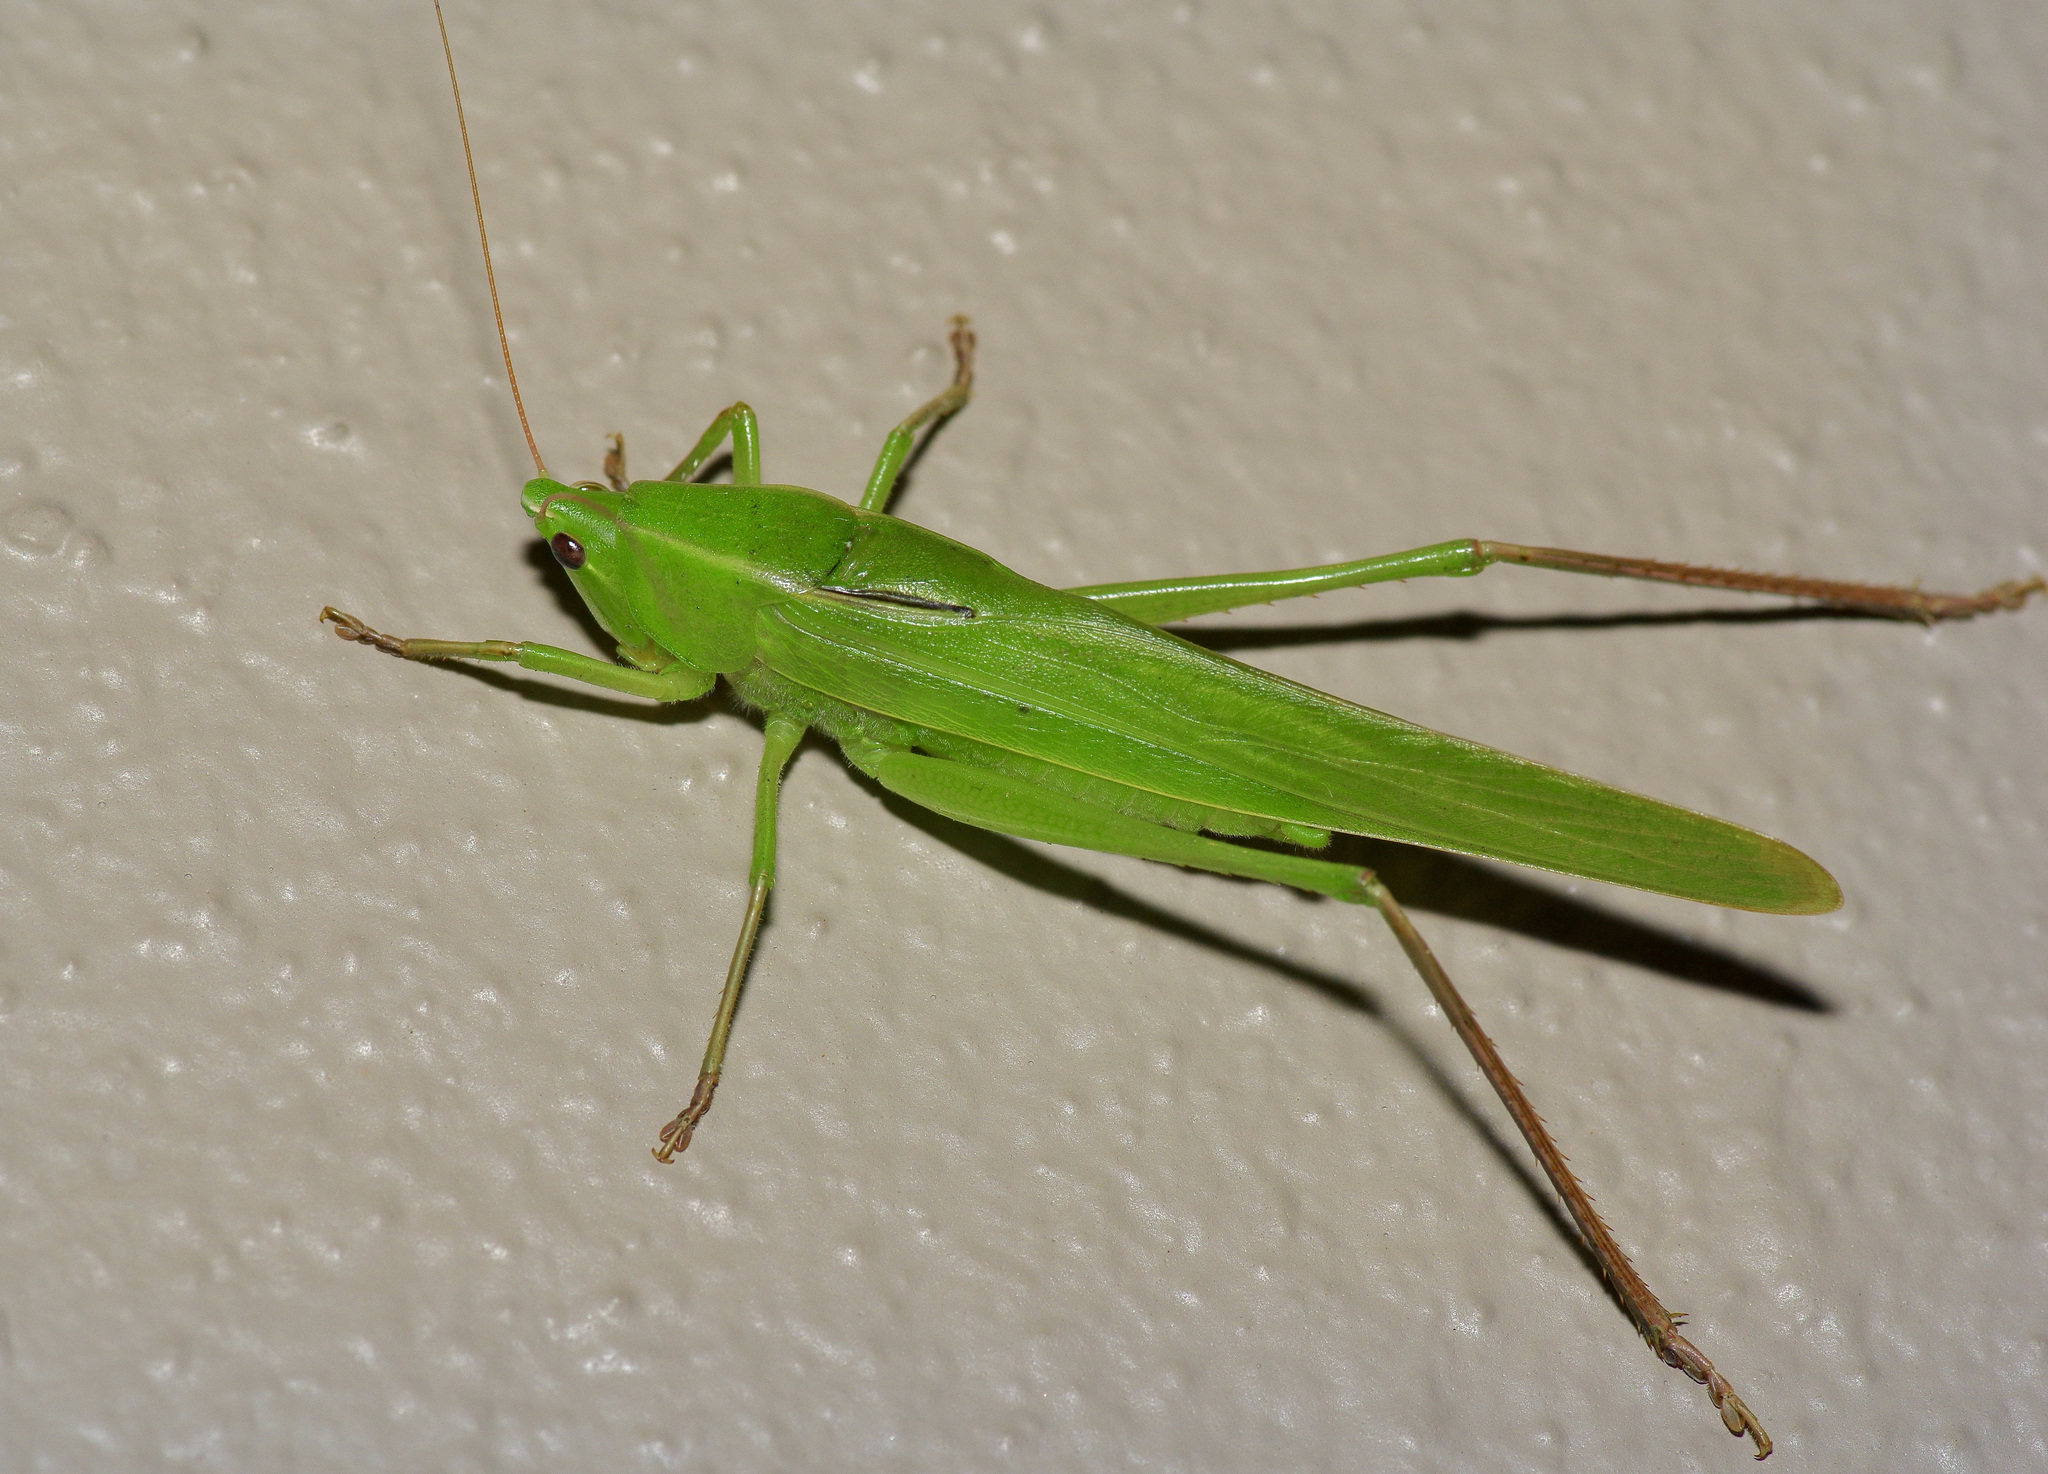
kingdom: Animalia
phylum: Arthropoda
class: Insecta
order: Orthoptera
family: Tettigoniidae
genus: Neoconocephalus
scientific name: Neoconocephalus triops
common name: Broad-tipped conehead
